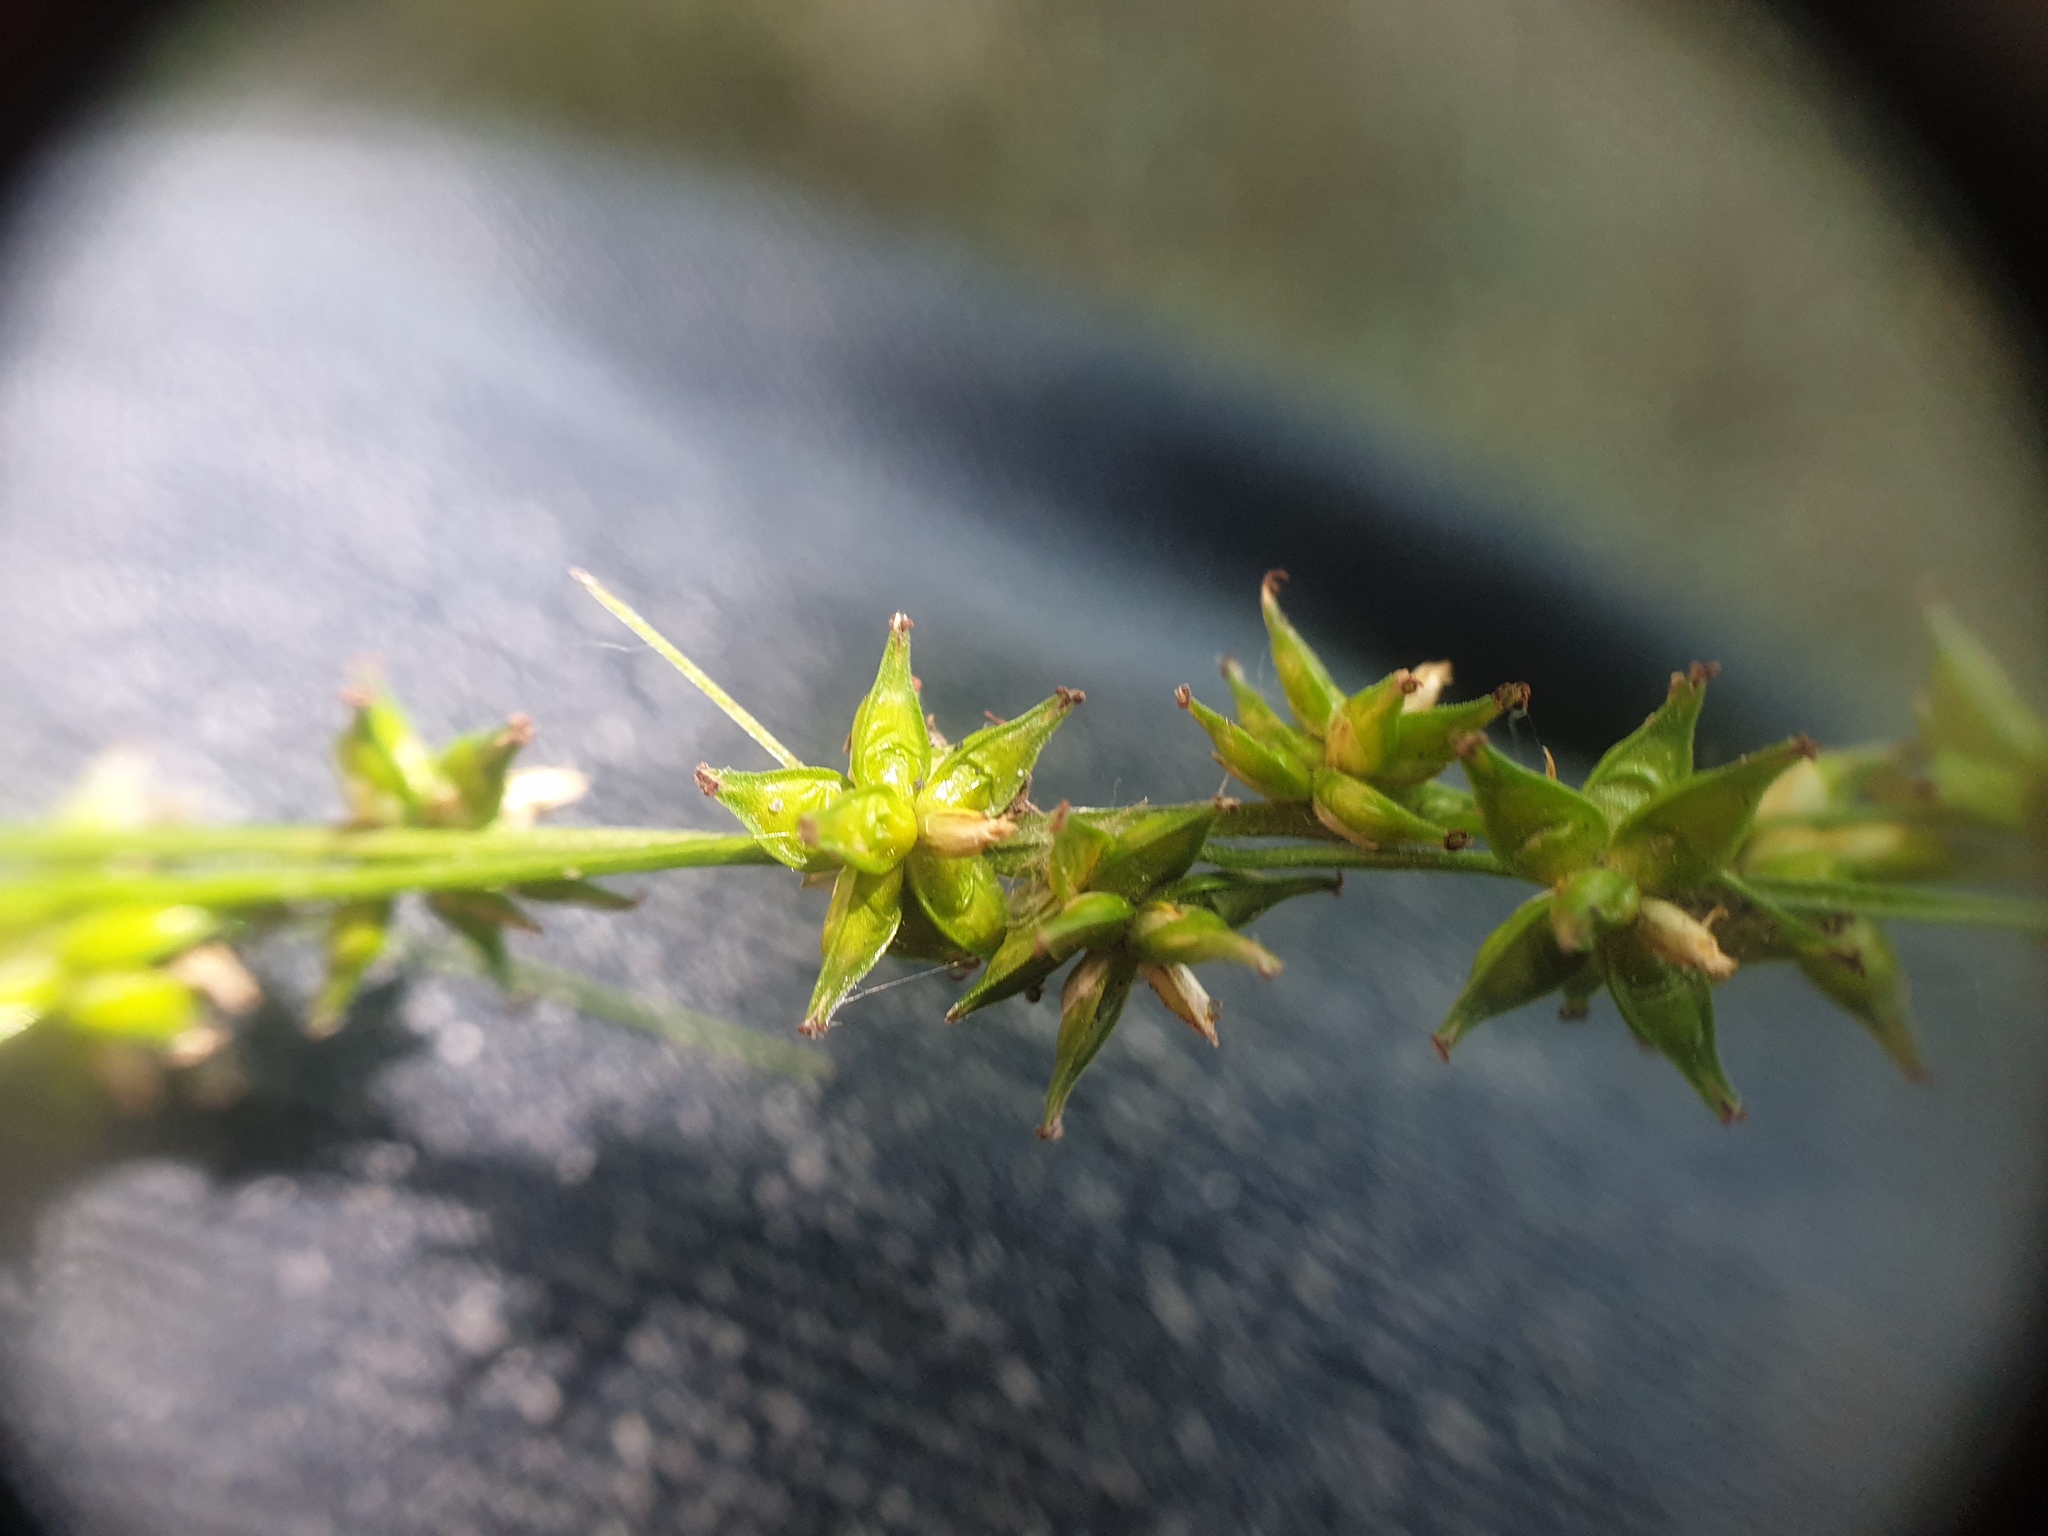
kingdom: Plantae
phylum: Tracheophyta
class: Liliopsida
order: Poales
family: Cyperaceae
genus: Carex
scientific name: Carex rosea
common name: Curly-styled wood sedge
